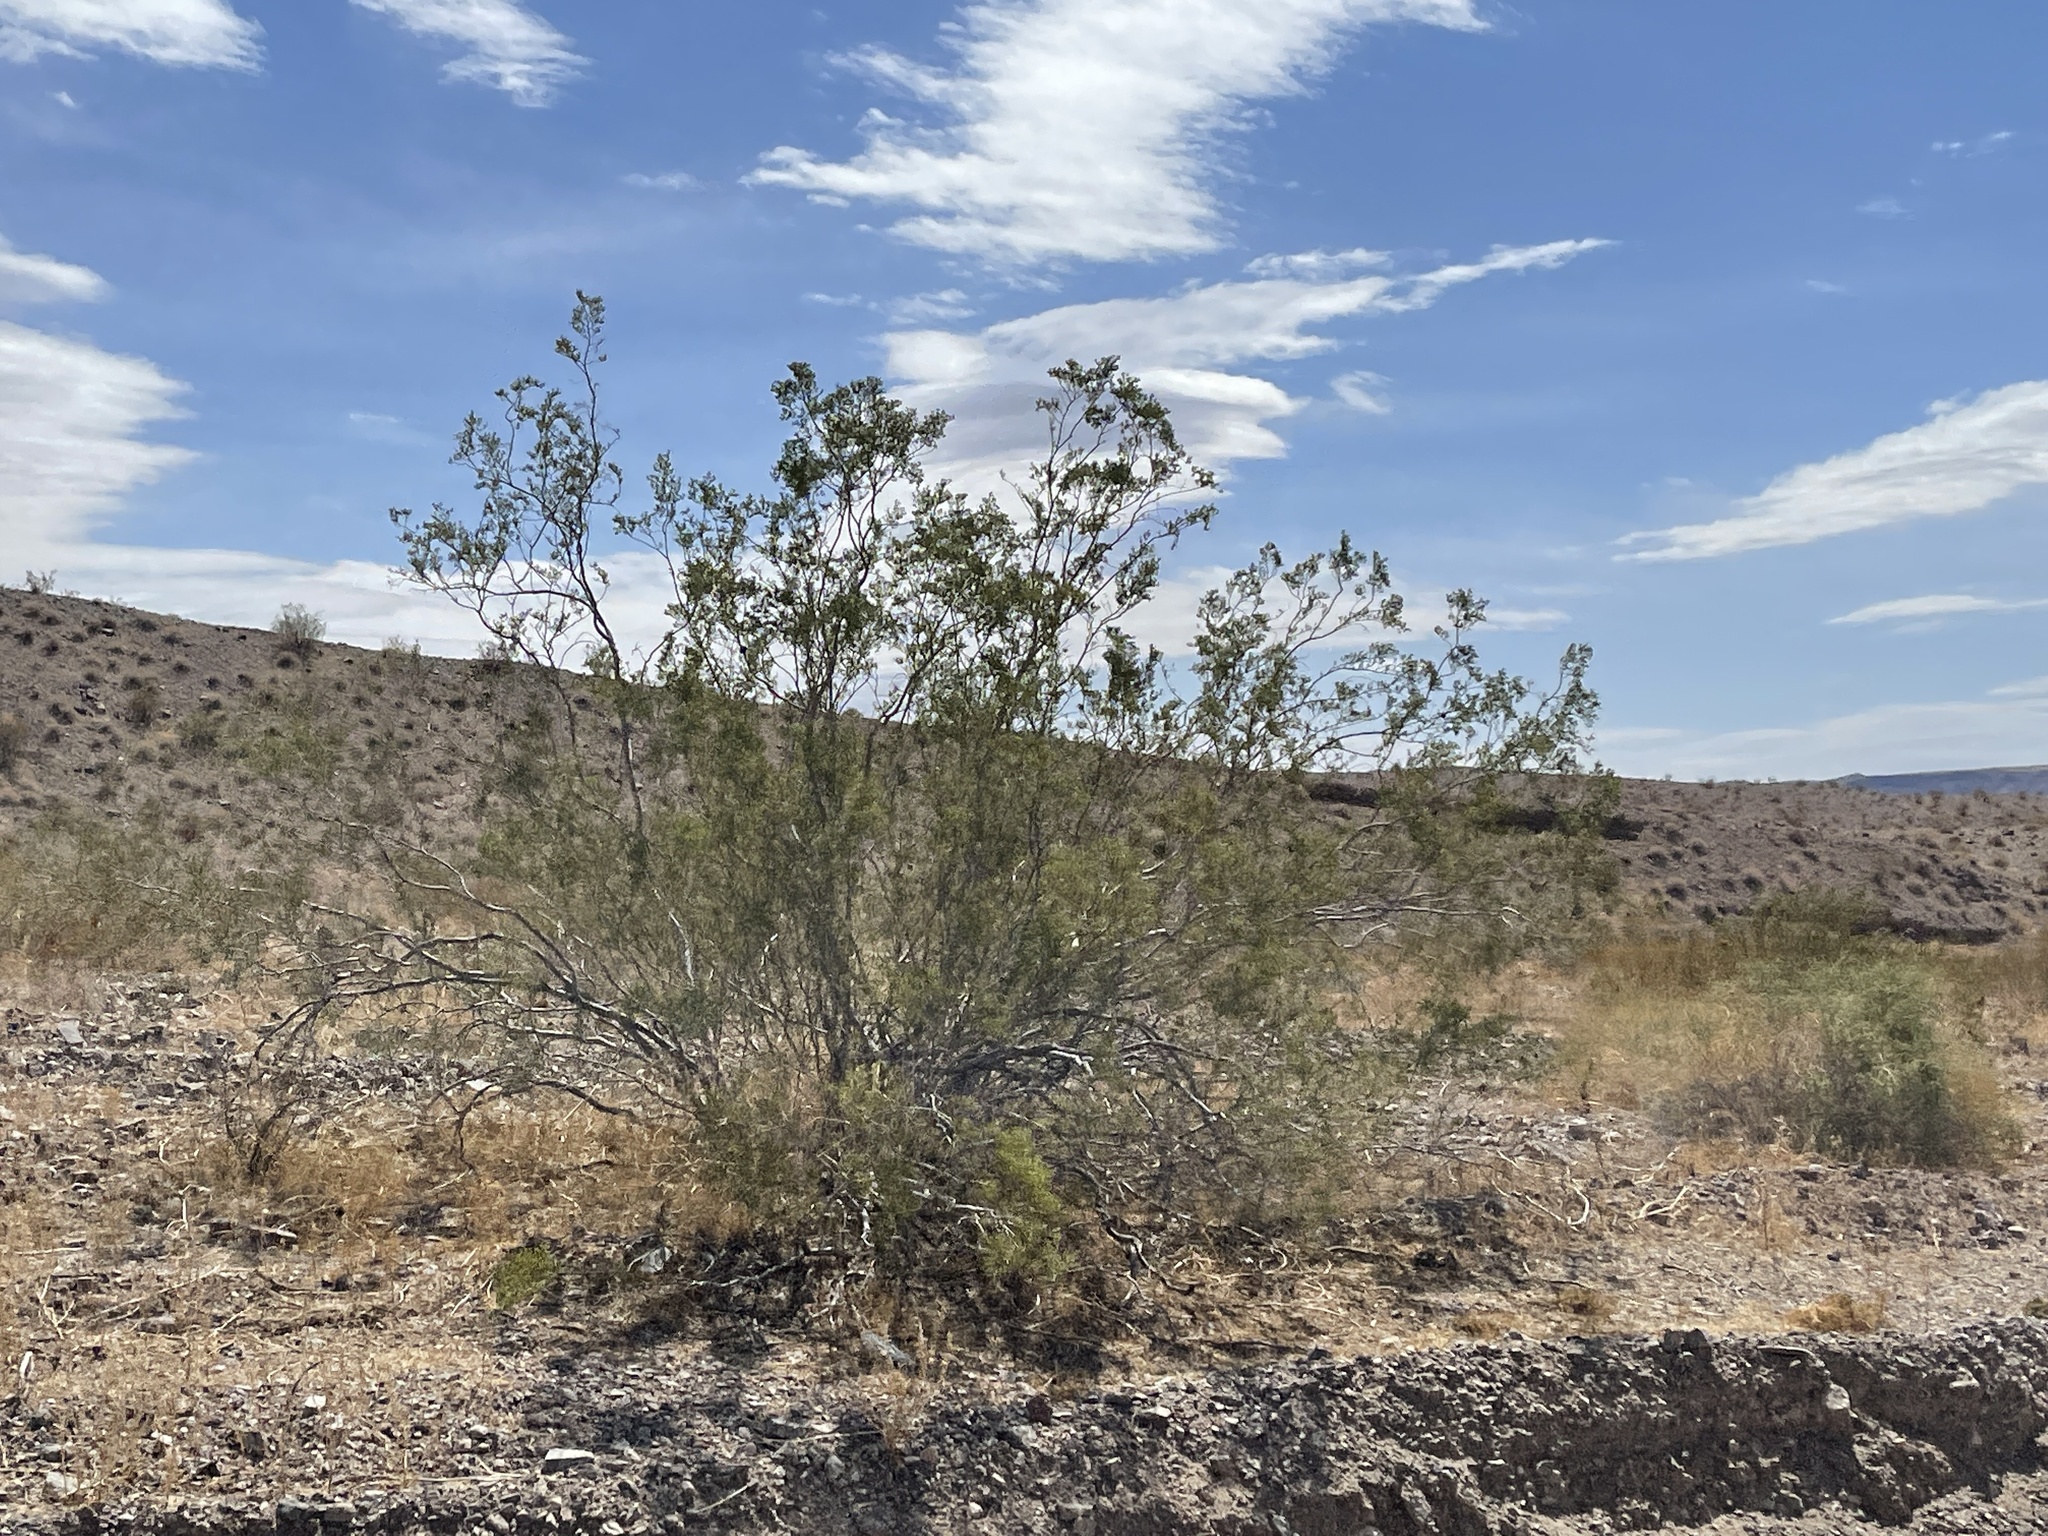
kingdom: Plantae
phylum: Tracheophyta
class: Magnoliopsida
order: Zygophyllales
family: Zygophyllaceae
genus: Larrea
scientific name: Larrea tridentata
